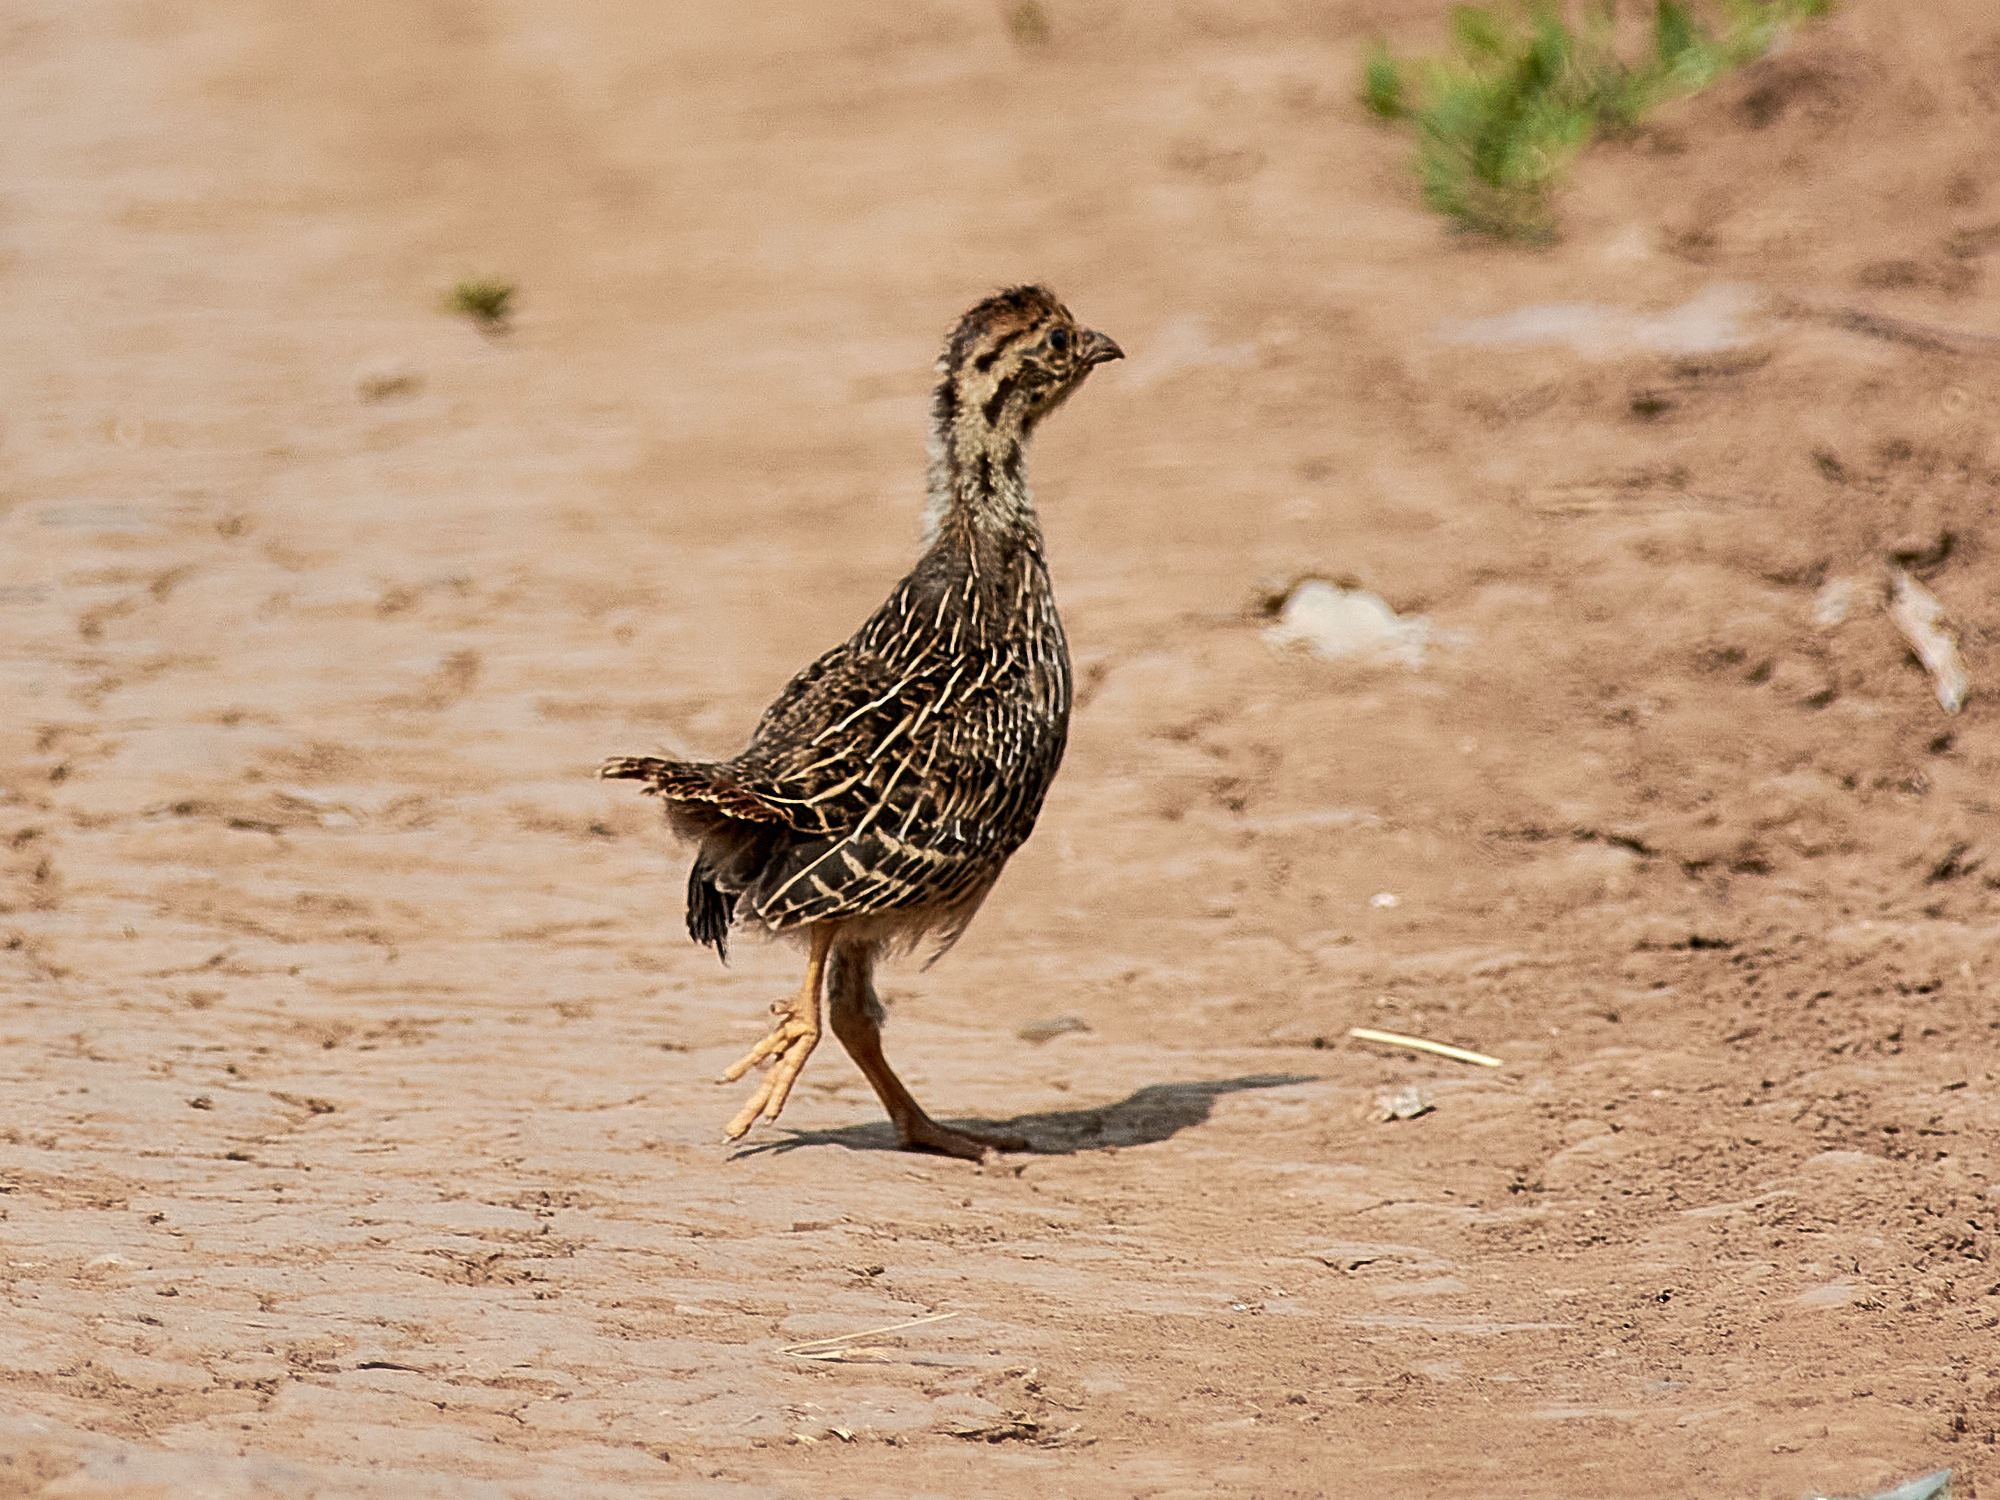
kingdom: Animalia
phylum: Chordata
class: Aves
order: Galliformes
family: Phasianidae
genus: Perdix
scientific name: Perdix perdix
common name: Grey partridge
